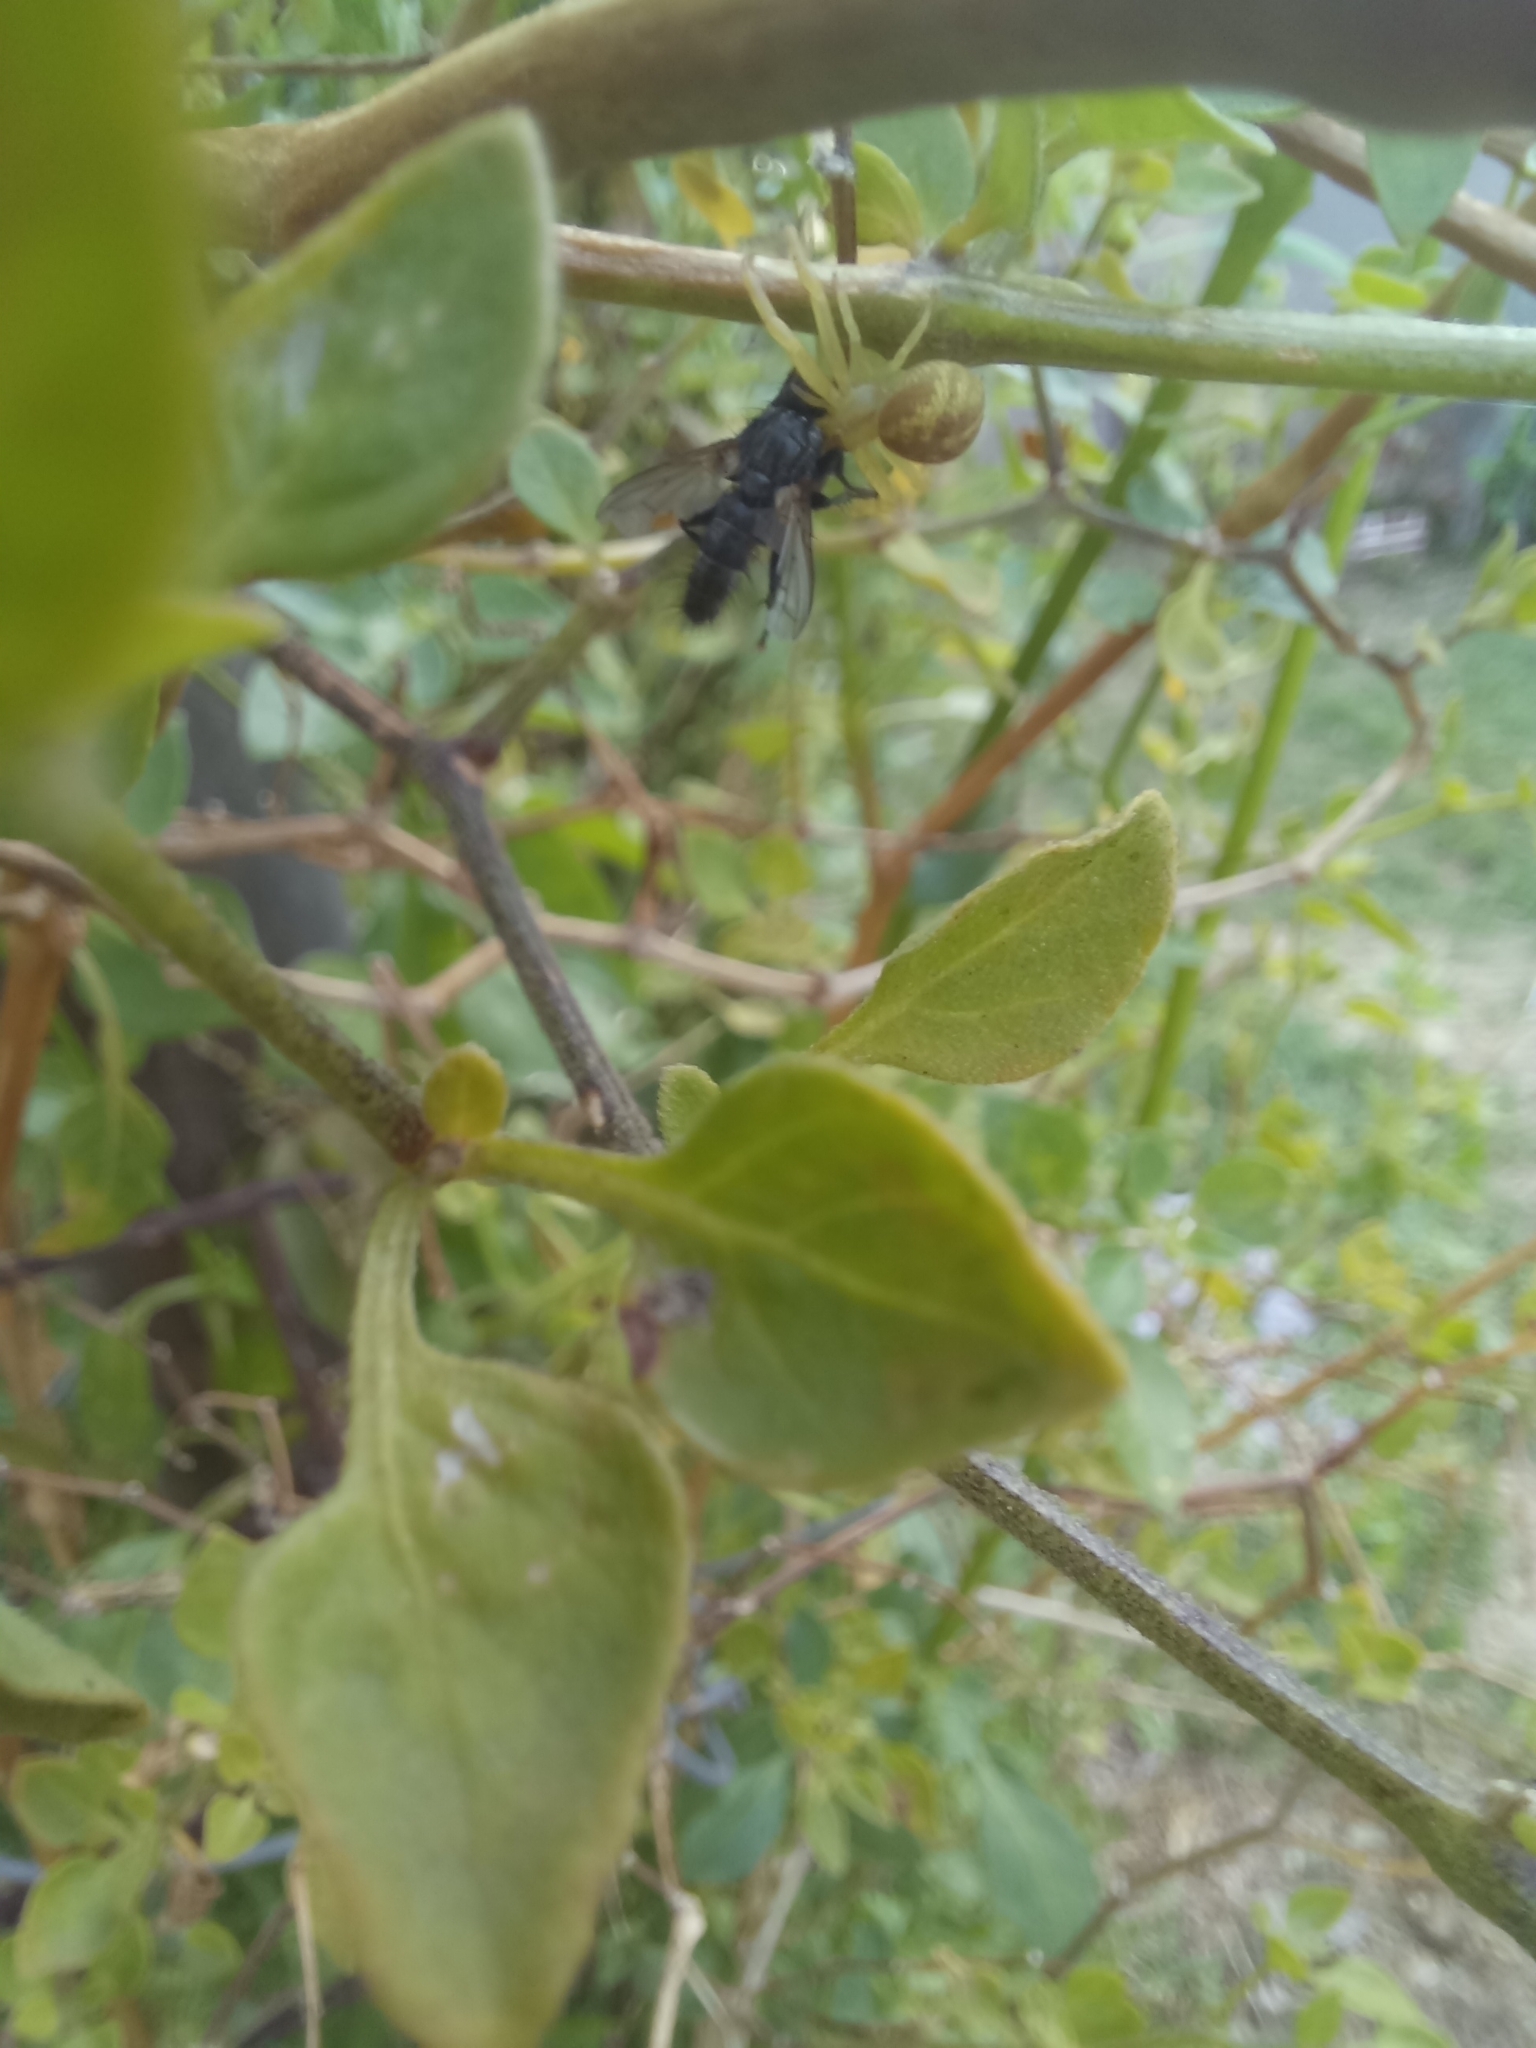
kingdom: Animalia
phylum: Arthropoda
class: Arachnida
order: Araneae
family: Thomisidae
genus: Misumenops
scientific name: Misumenops
